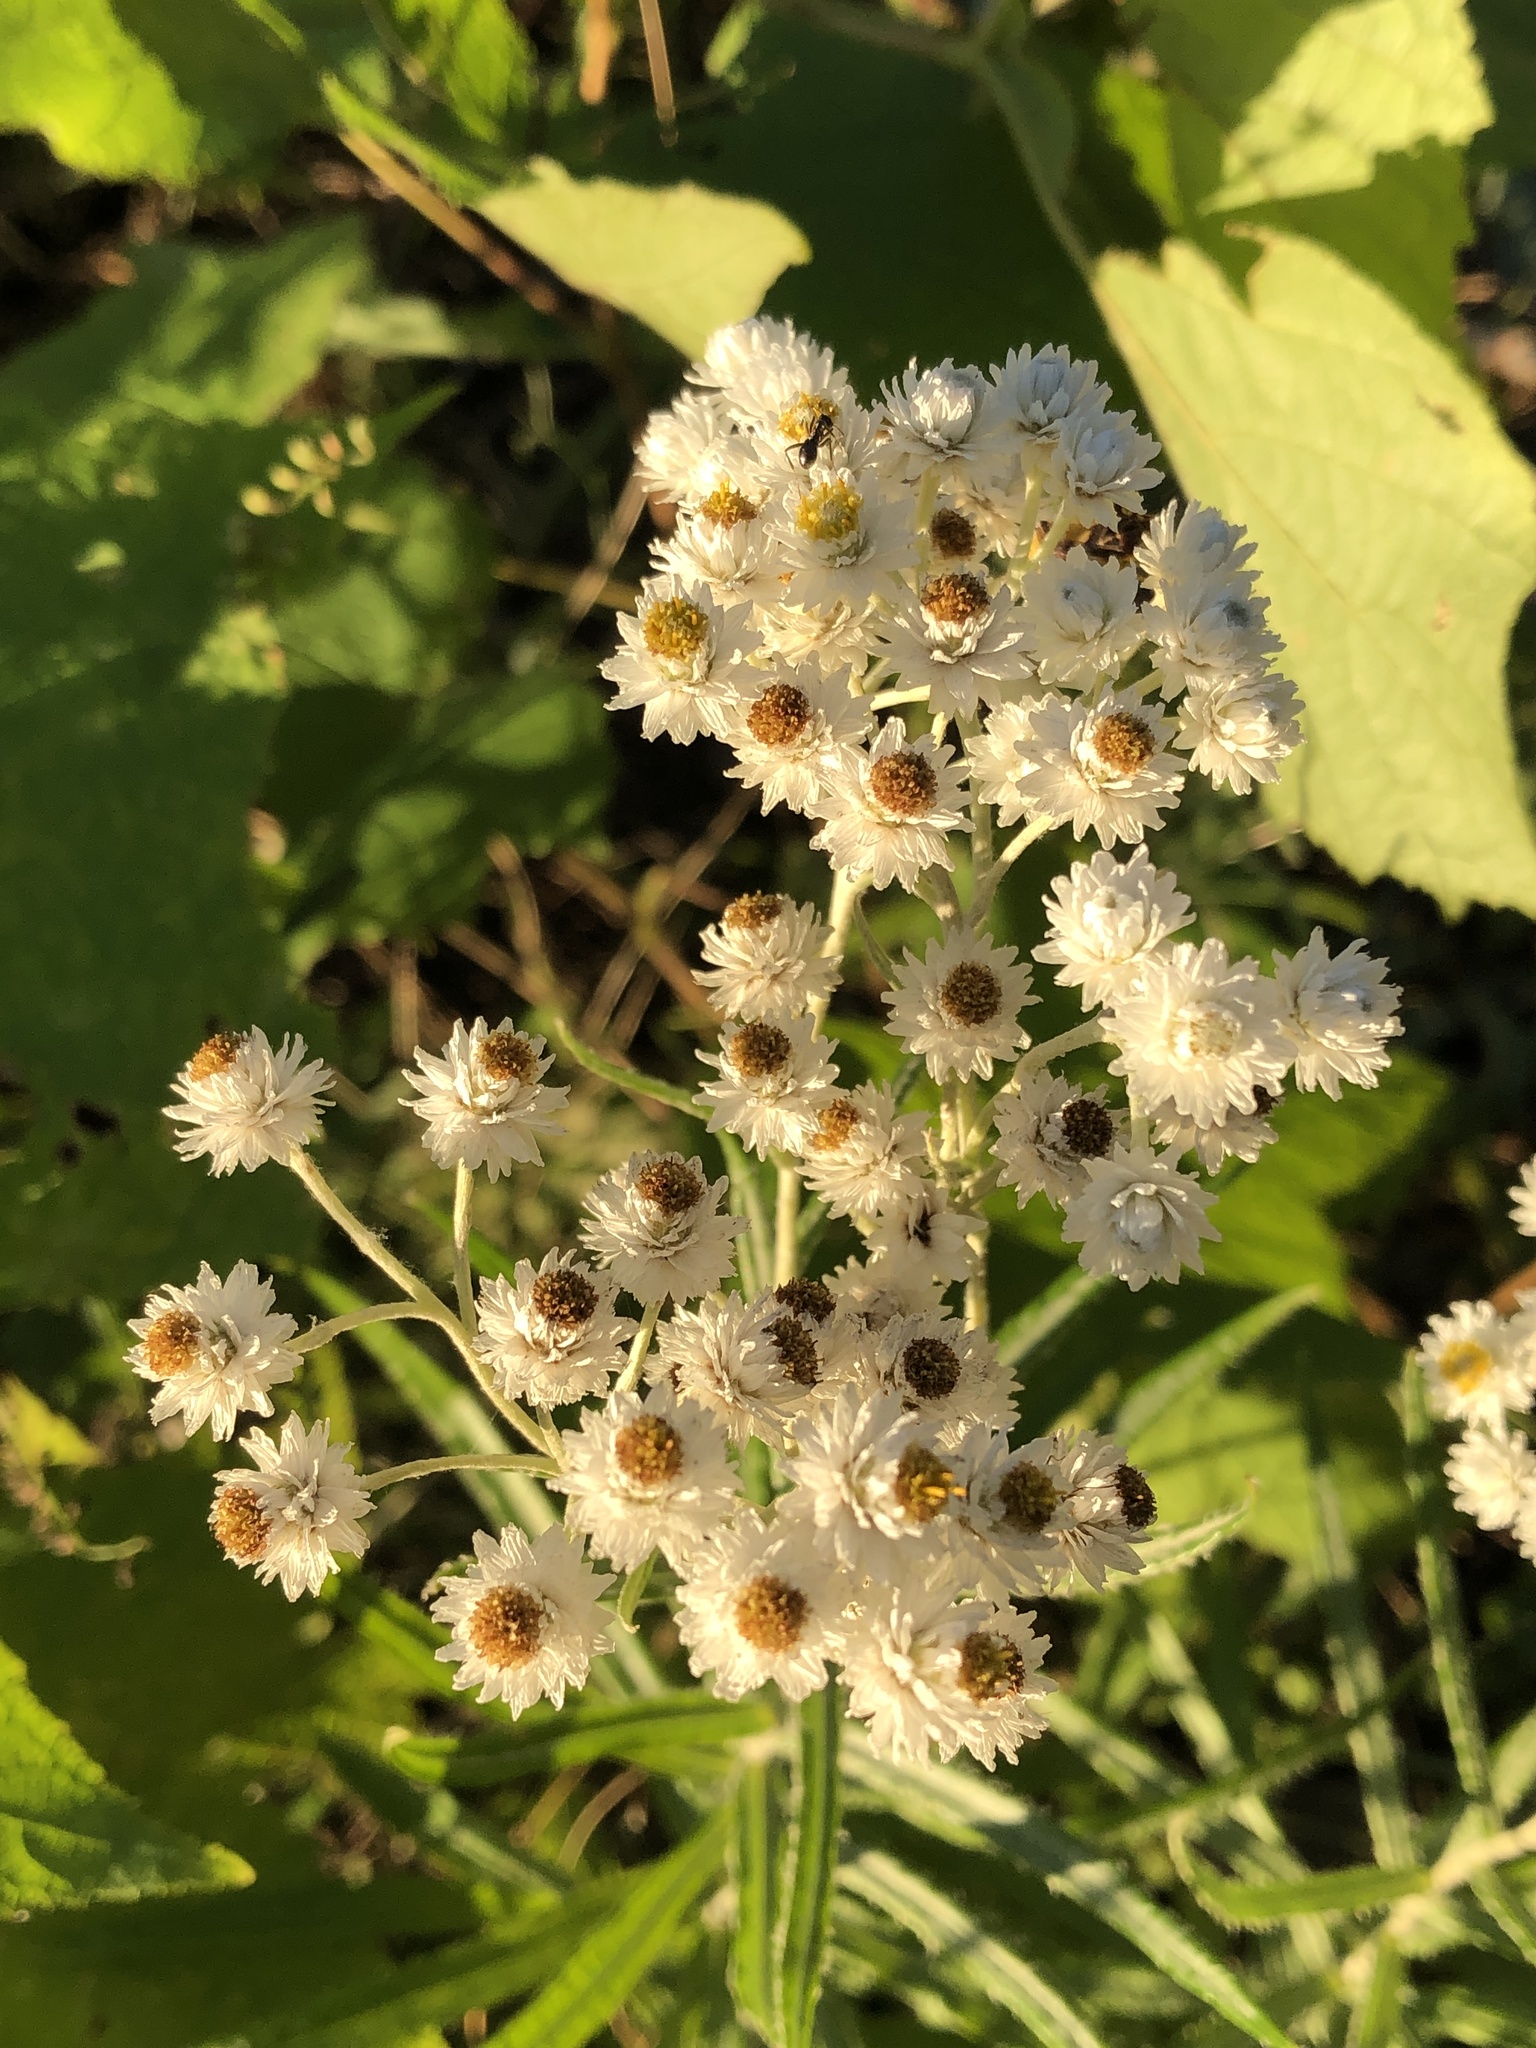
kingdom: Plantae
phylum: Tracheophyta
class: Magnoliopsida
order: Asterales
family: Asteraceae
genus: Anaphalis
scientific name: Anaphalis margaritacea
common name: Pearly everlasting
